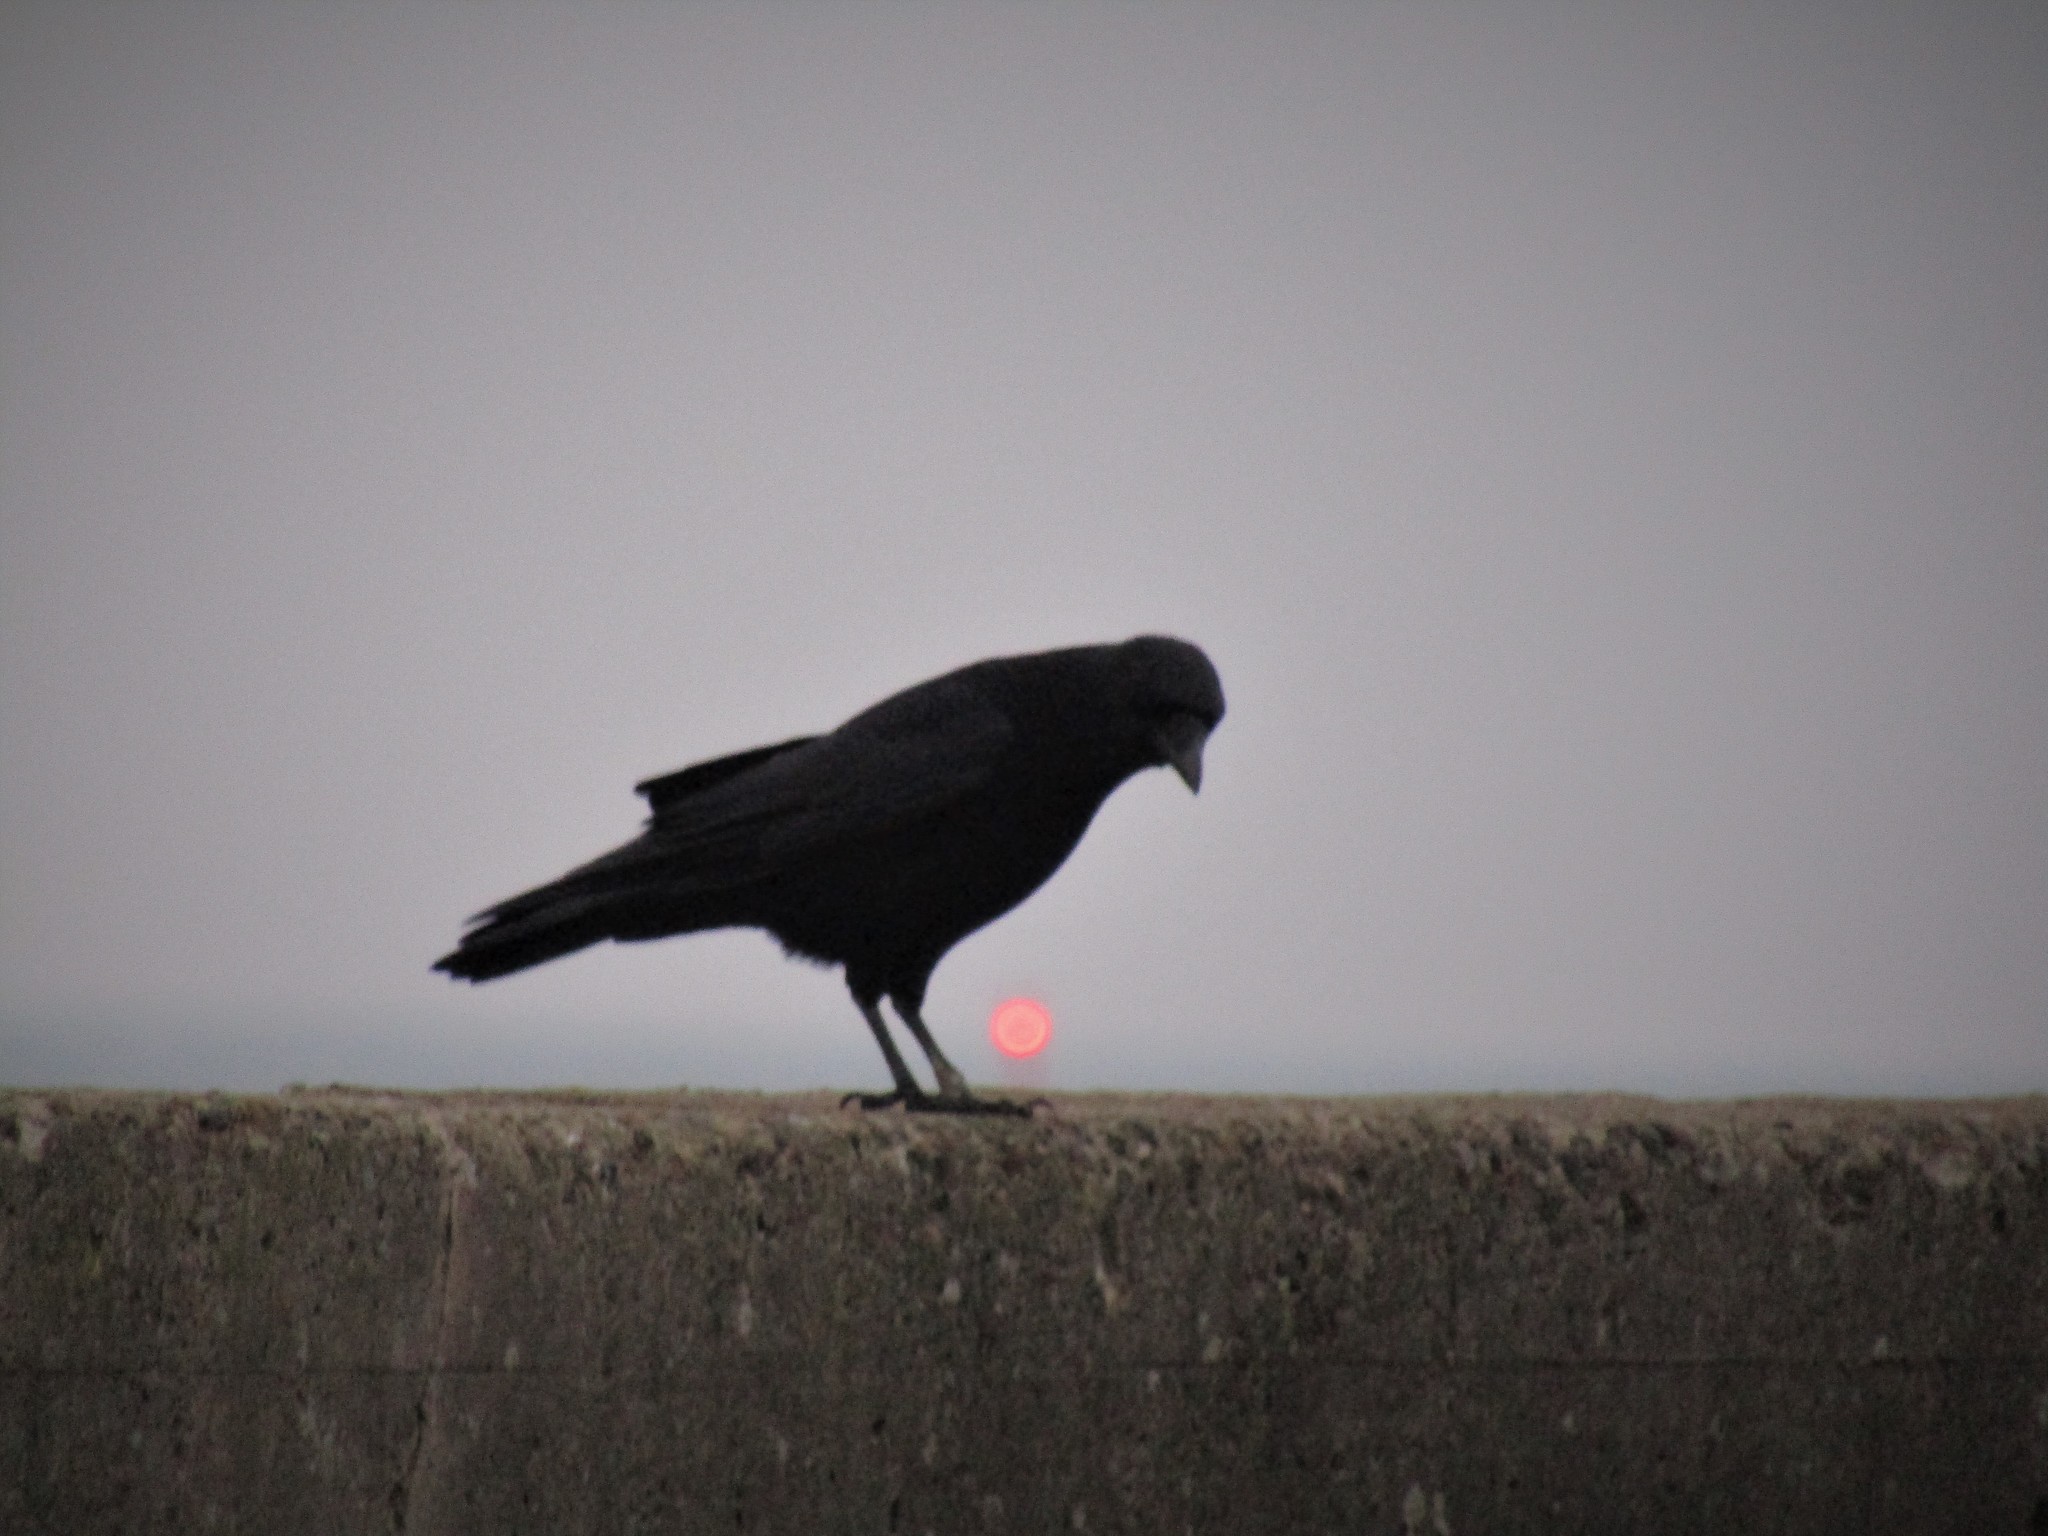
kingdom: Animalia
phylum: Chordata
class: Aves
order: Passeriformes
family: Corvidae
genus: Corvus
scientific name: Corvus corone
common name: Carrion crow
